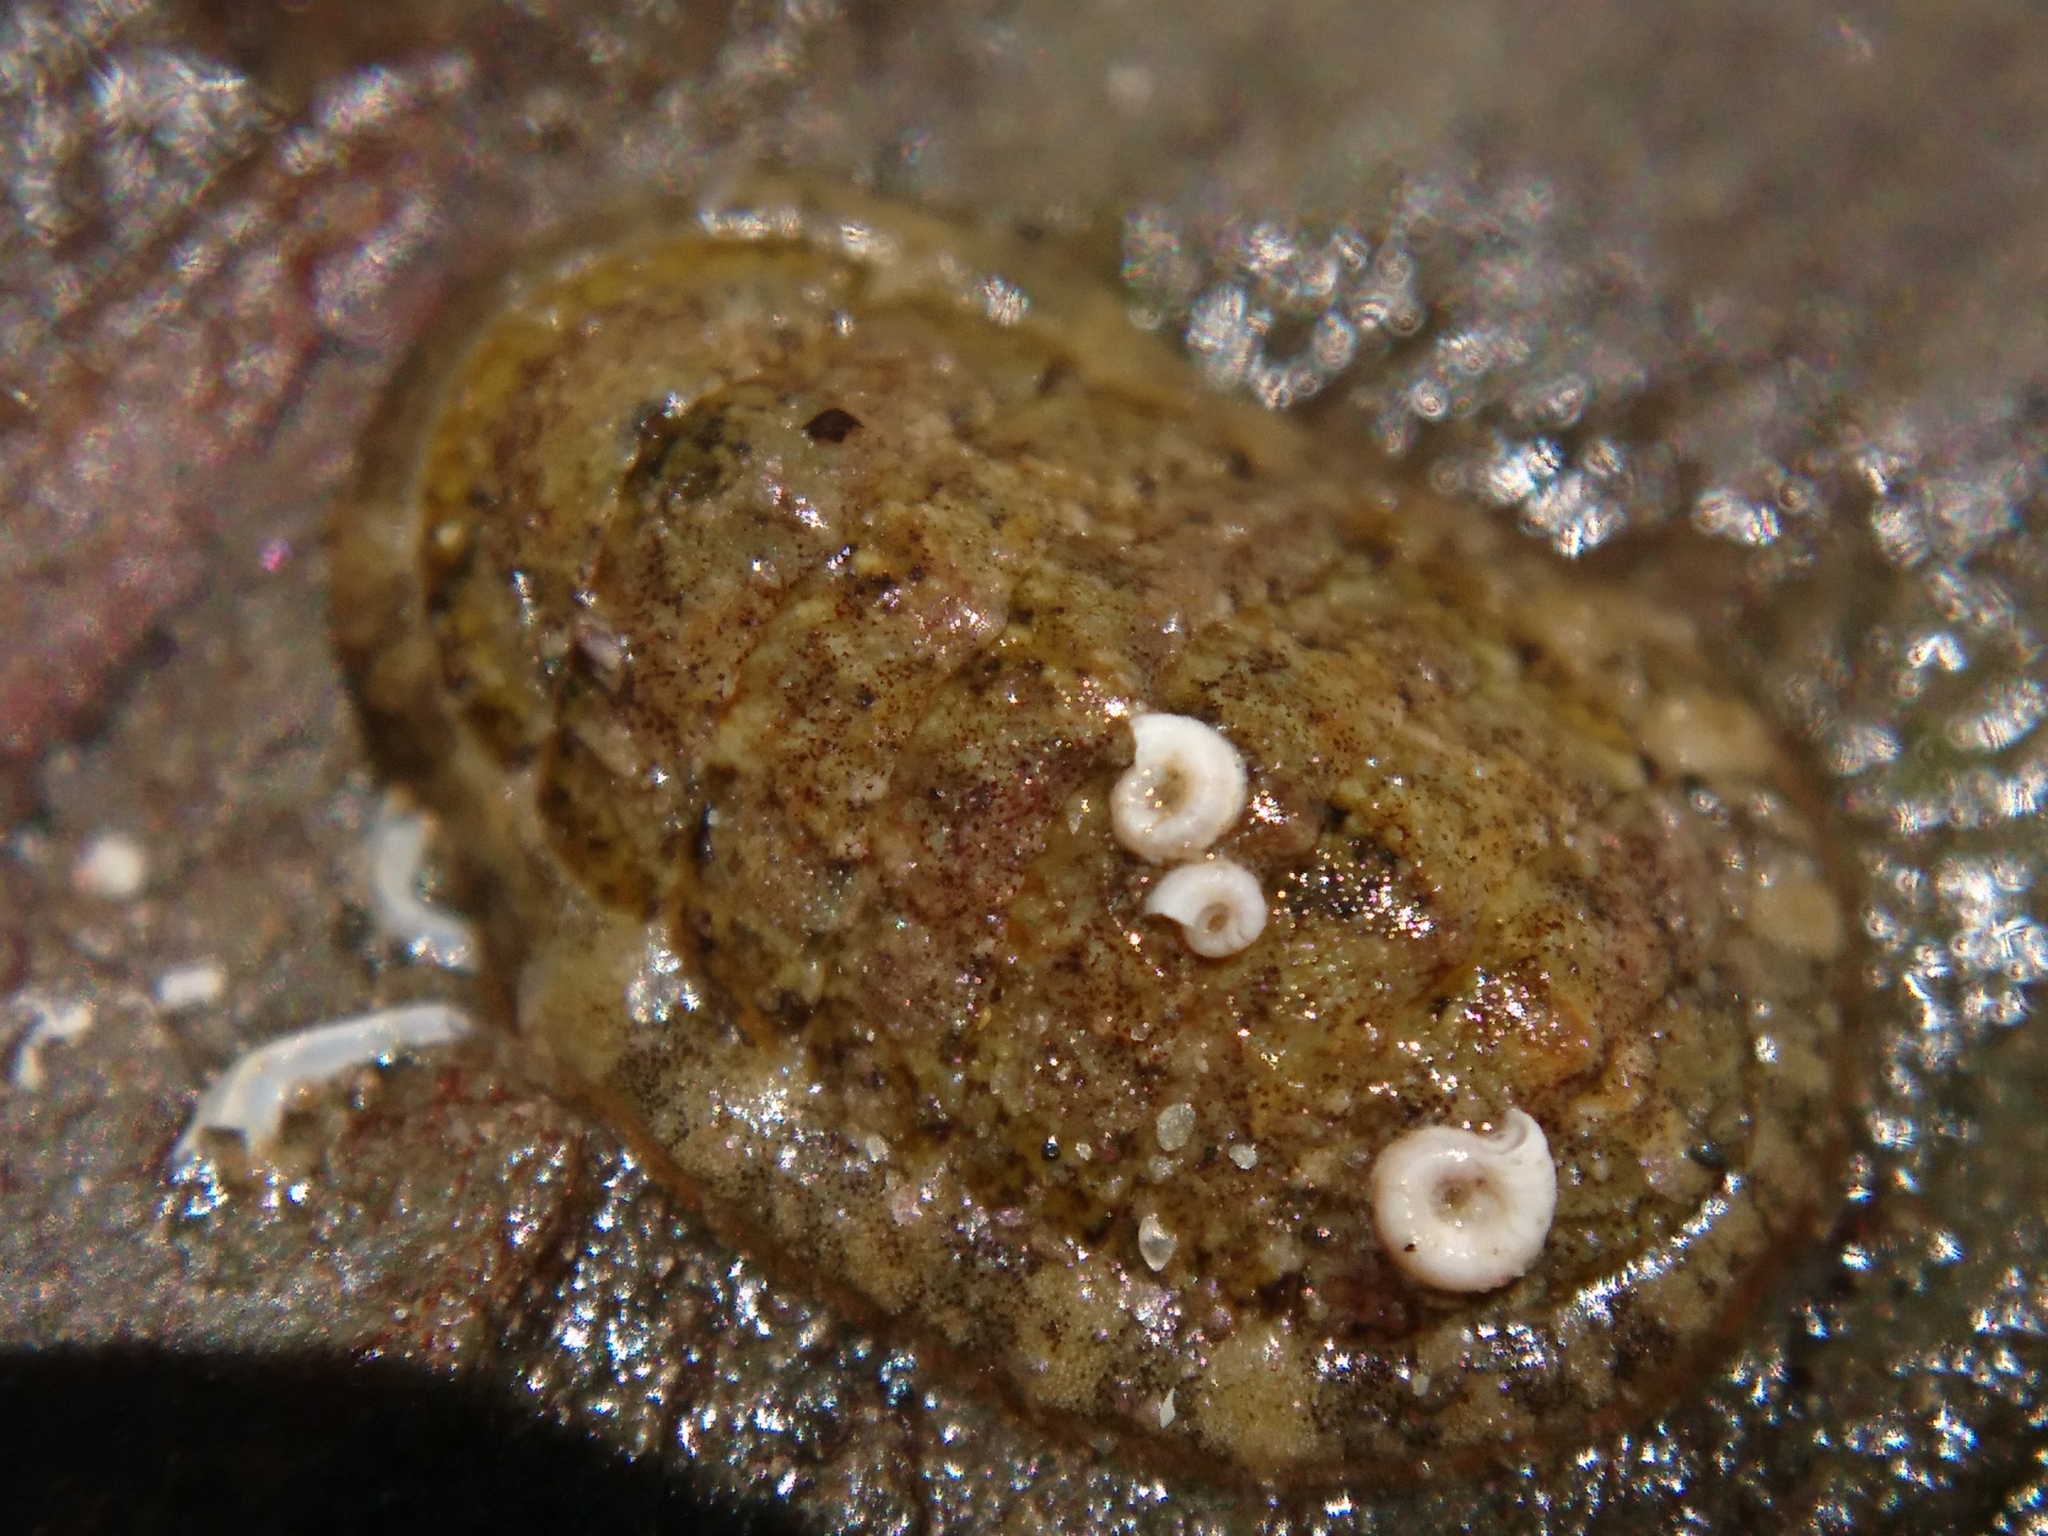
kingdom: Animalia
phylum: Mollusca
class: Polyplacophora
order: Chitonida
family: Tonicellidae
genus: Lepidochitona
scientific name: Lepidochitona cinerea
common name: Cinereous chiton
